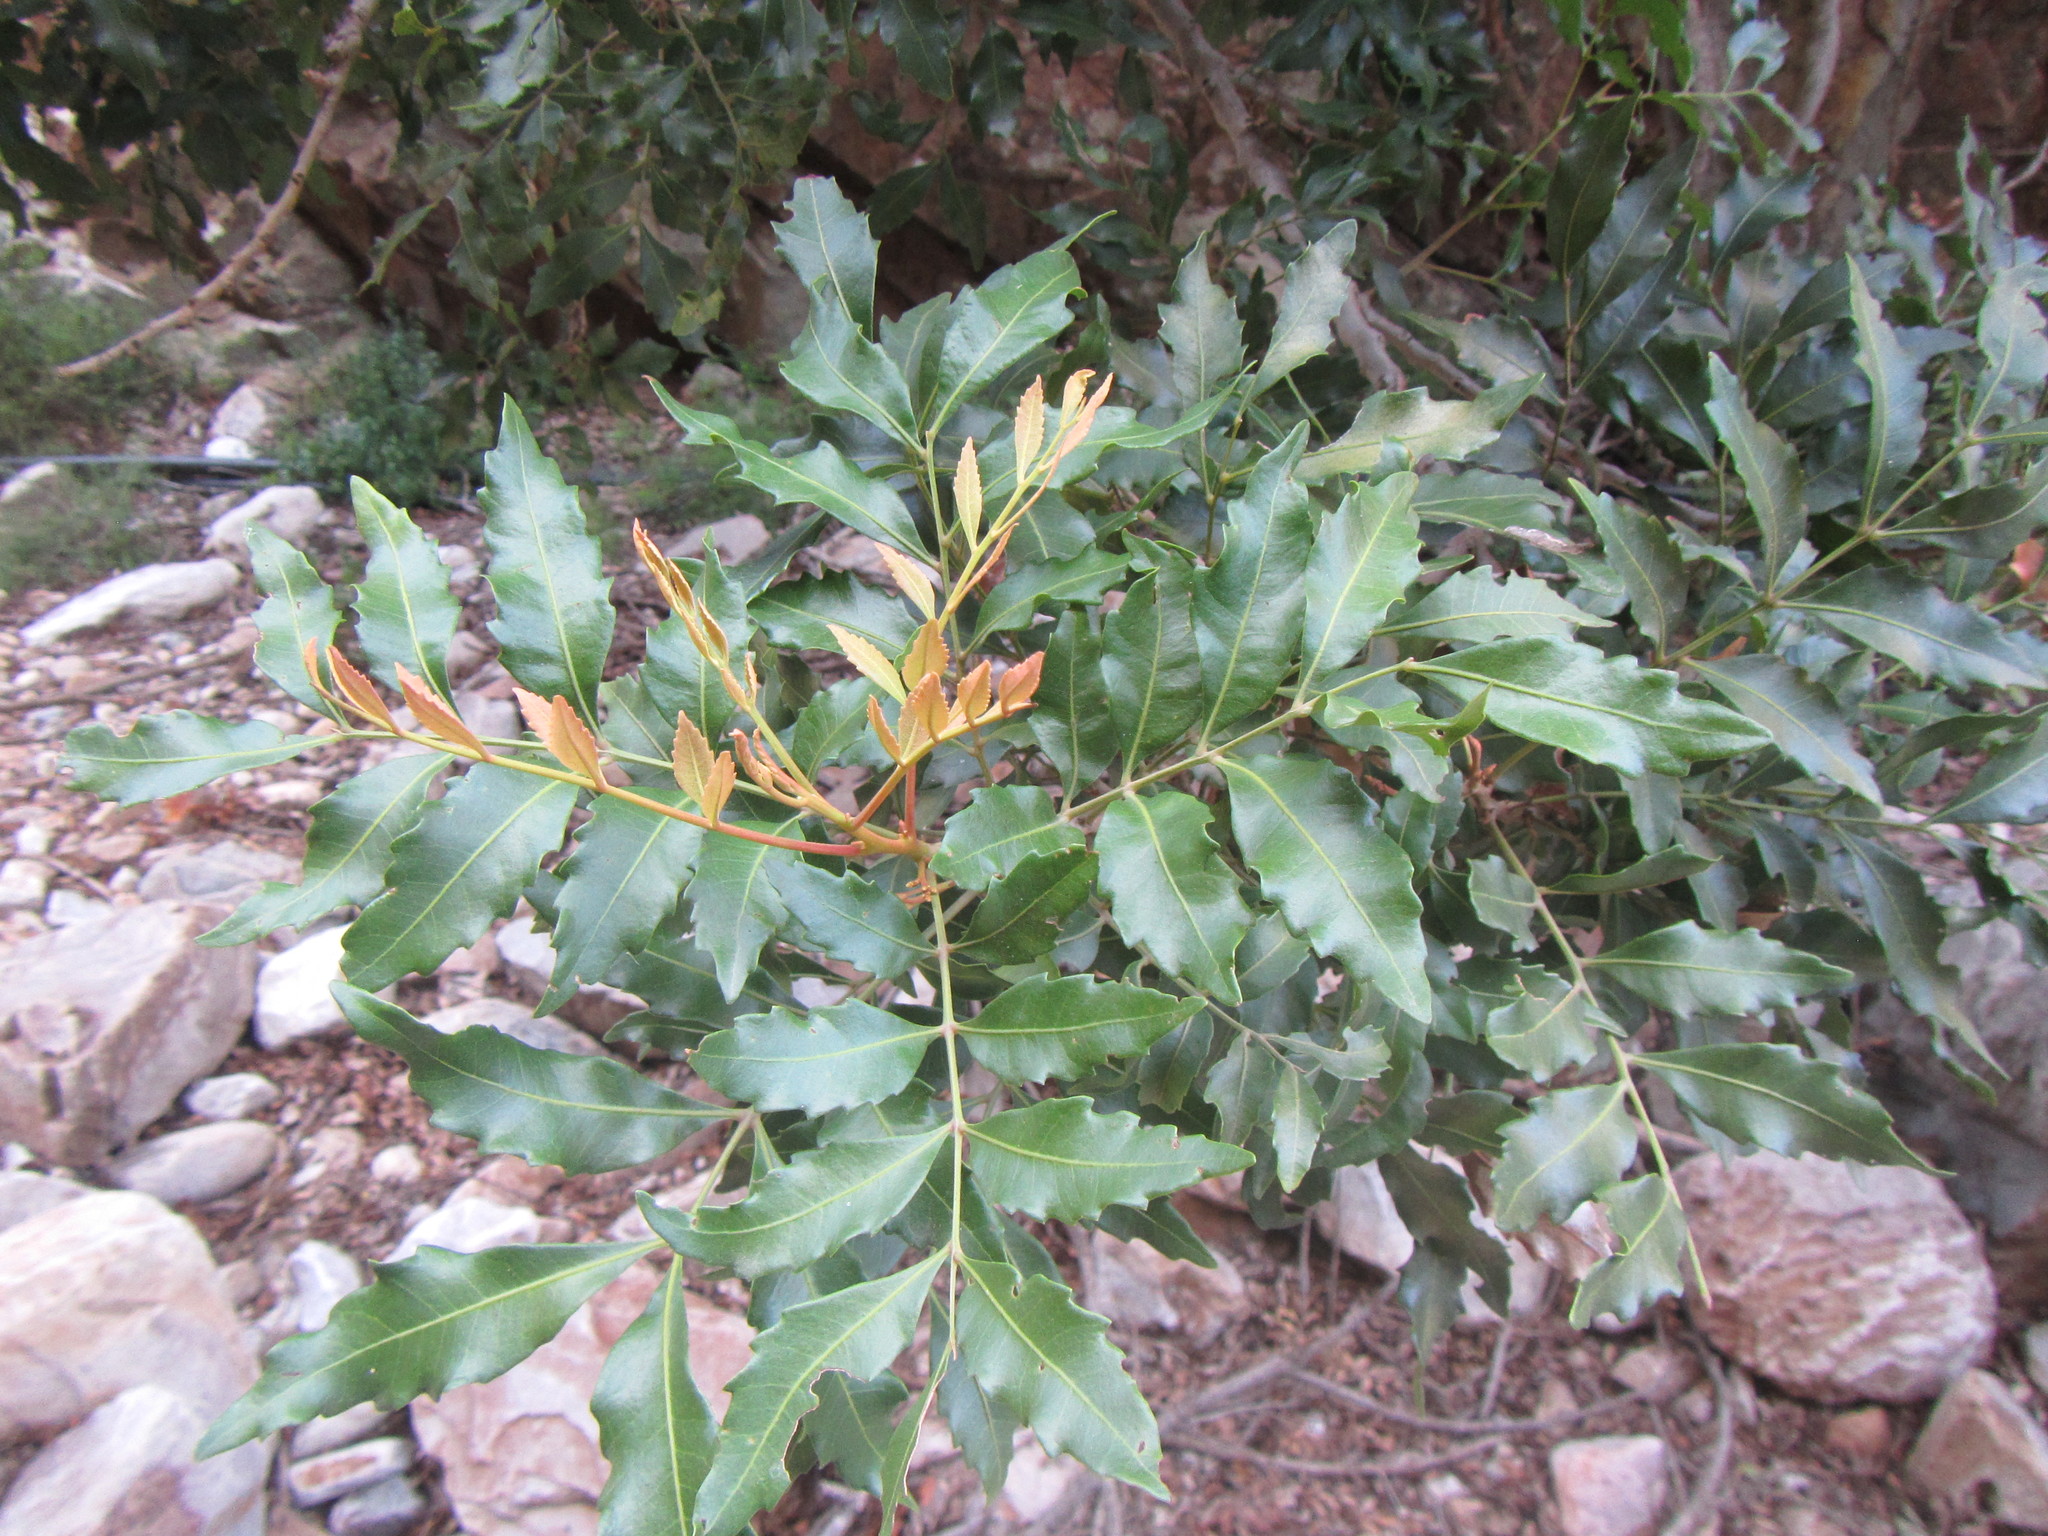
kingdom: Plantae
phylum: Tracheophyta
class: Magnoliopsida
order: Sapindales
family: Sapindaceae
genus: Smelophyllum
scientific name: Smelophyllum capense
